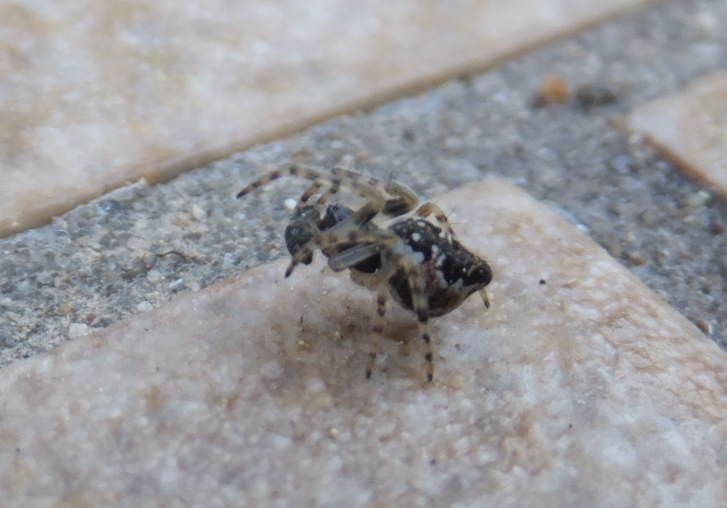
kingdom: Animalia
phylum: Arthropoda
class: Arachnida
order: Araneae
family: Araneidae
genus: Cyclosa
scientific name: Cyclosa conica
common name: Conical trashline orbweaver
